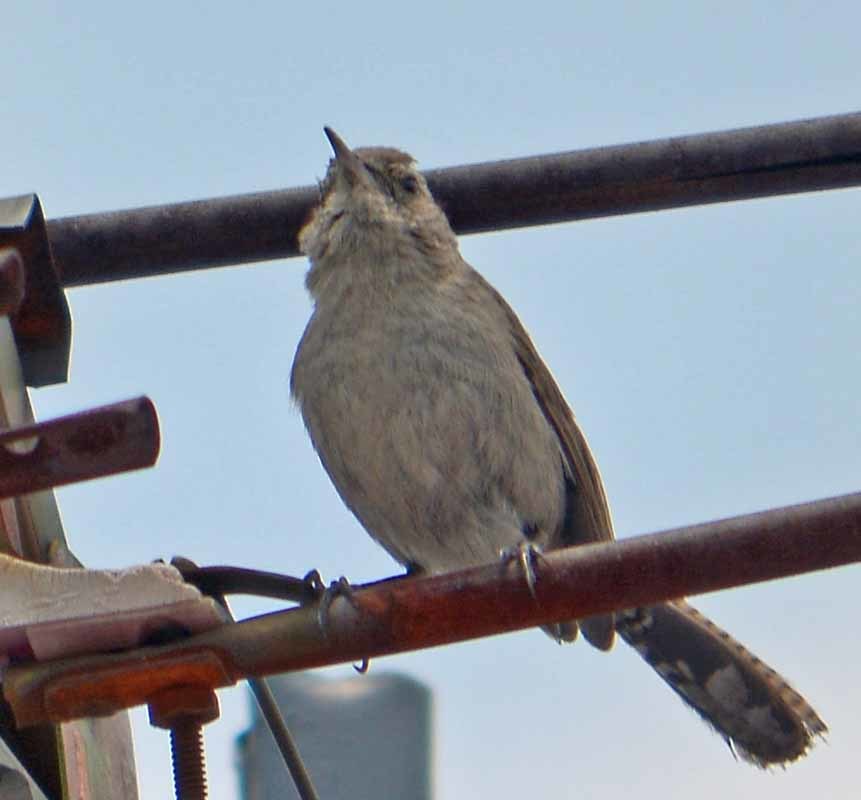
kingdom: Animalia
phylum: Chordata
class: Aves
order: Passeriformes
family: Troglodytidae
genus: Thryomanes
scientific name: Thryomanes bewickii
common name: Bewick's wren
